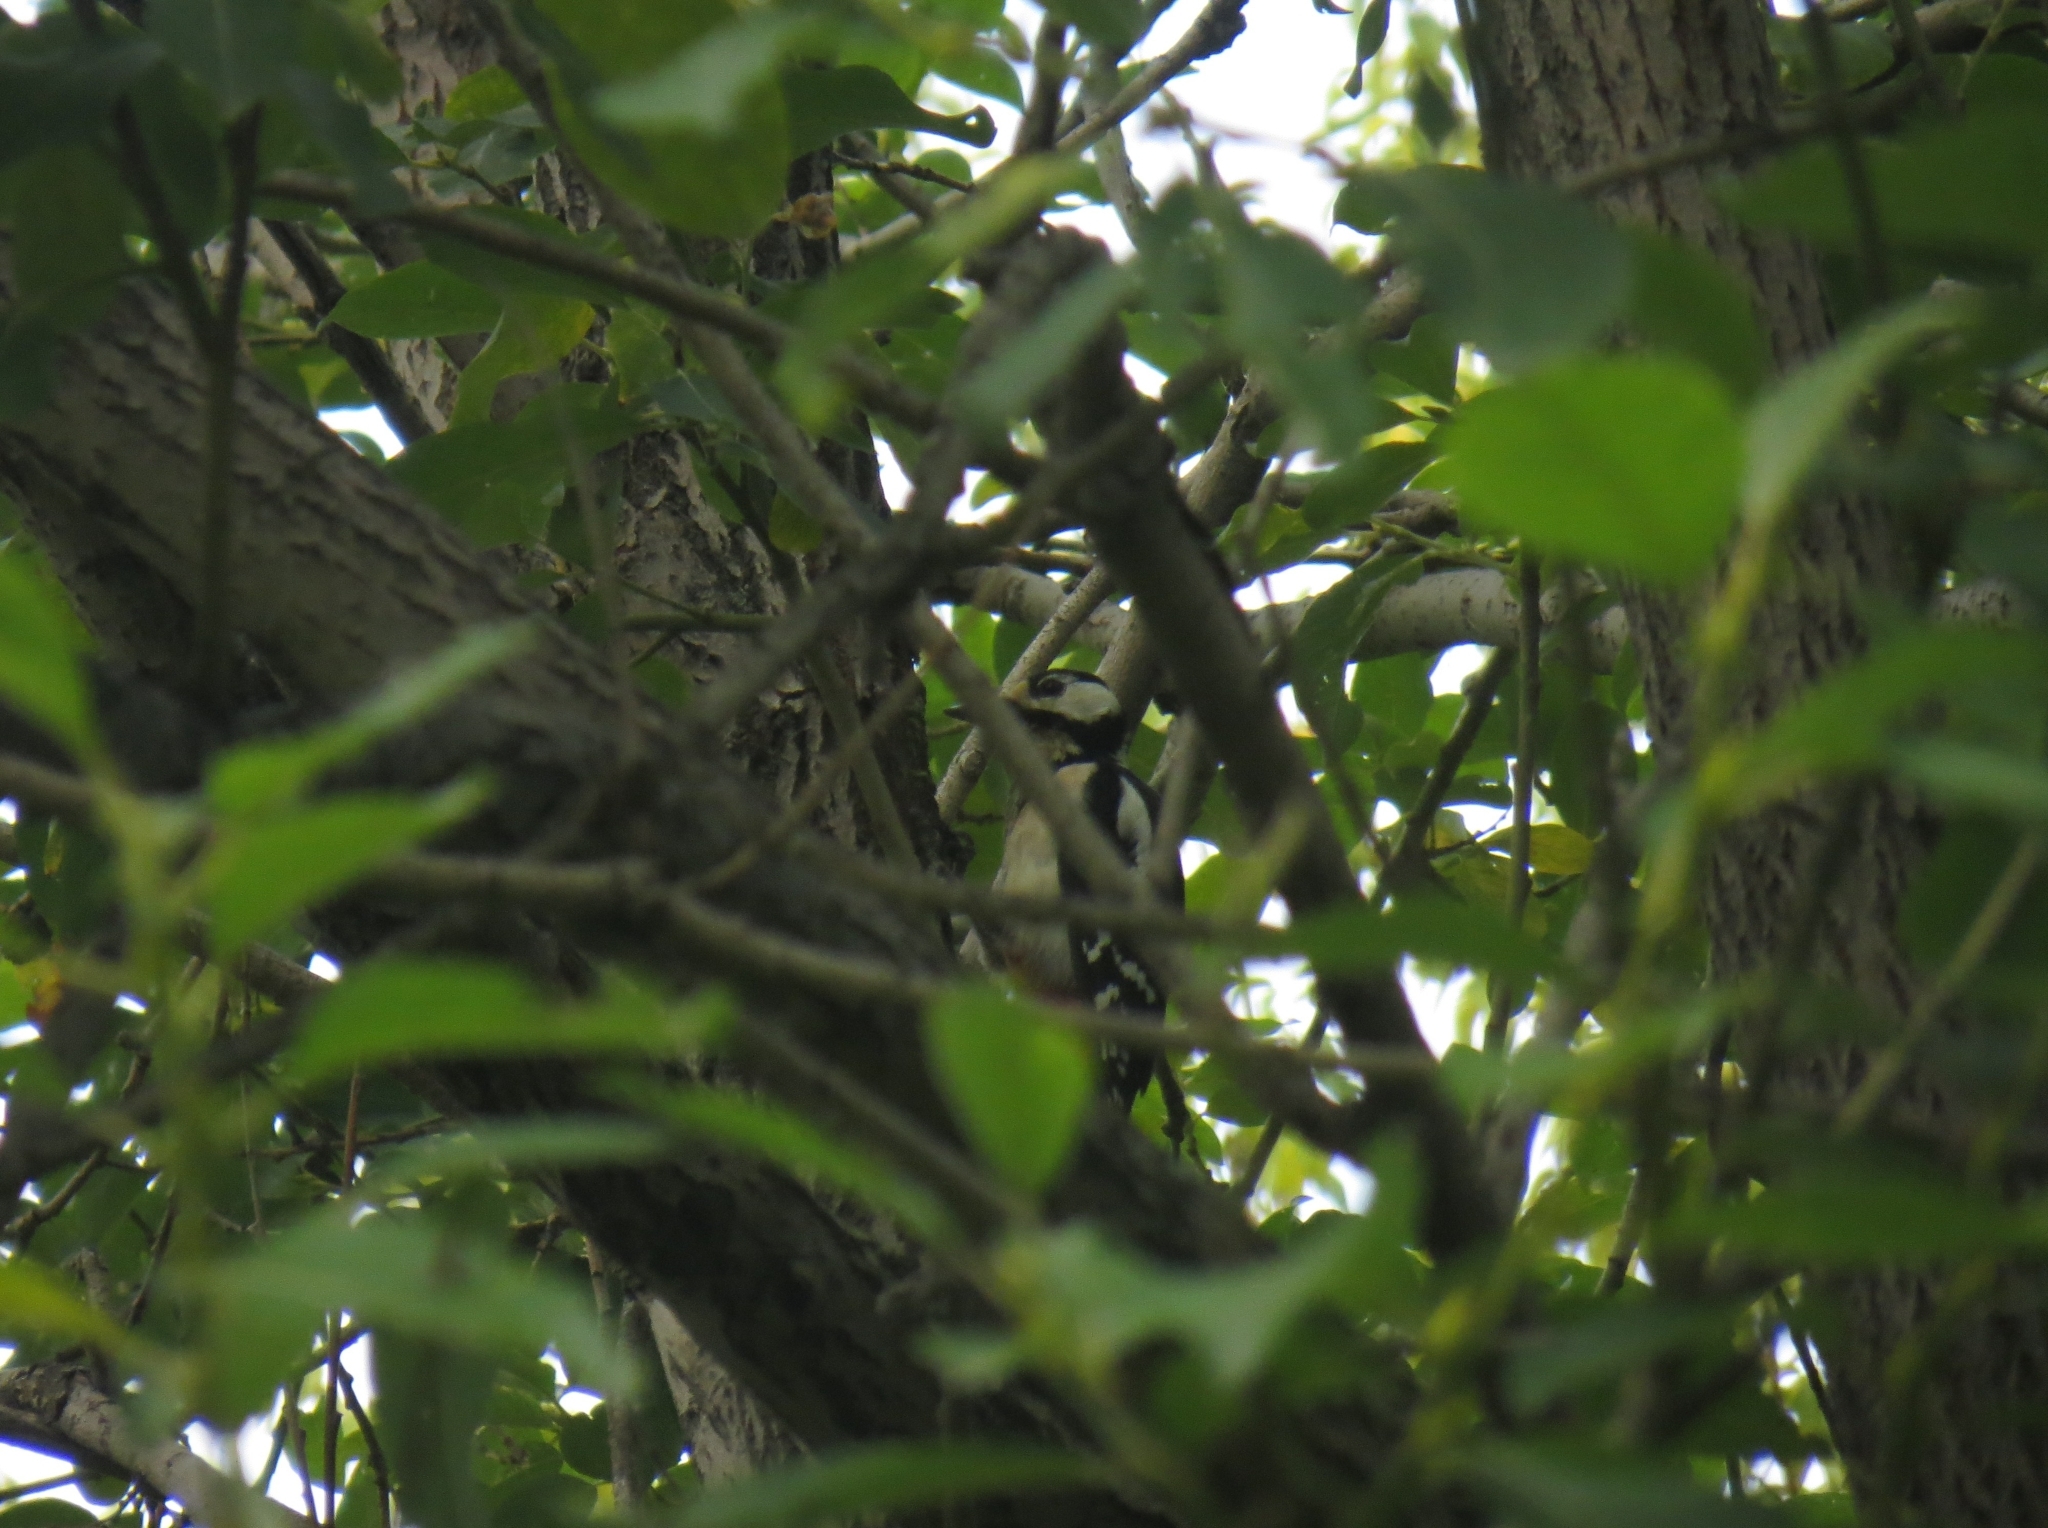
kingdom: Animalia
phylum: Chordata
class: Aves
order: Piciformes
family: Picidae
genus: Dendrocopos
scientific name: Dendrocopos major
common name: Great spotted woodpecker
